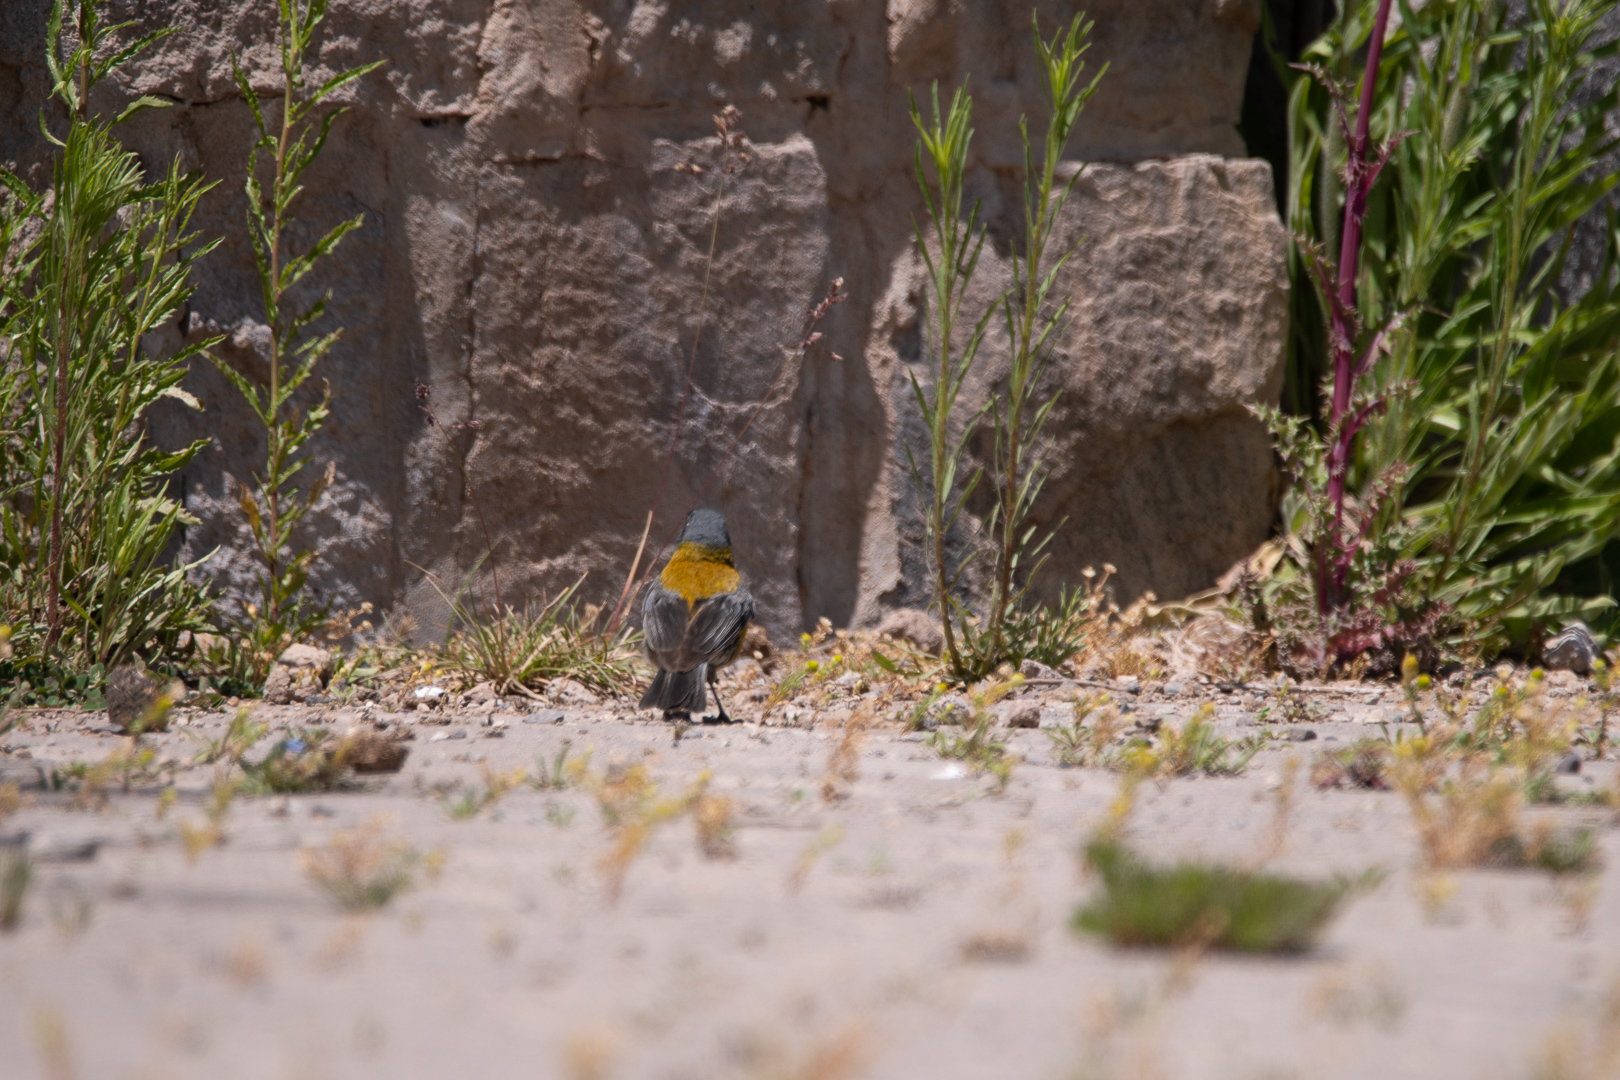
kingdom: Animalia
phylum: Chordata
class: Aves
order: Passeriformes
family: Thraupidae
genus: Phrygilus
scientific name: Phrygilus gayi
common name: Grey-hooded sierra finch
